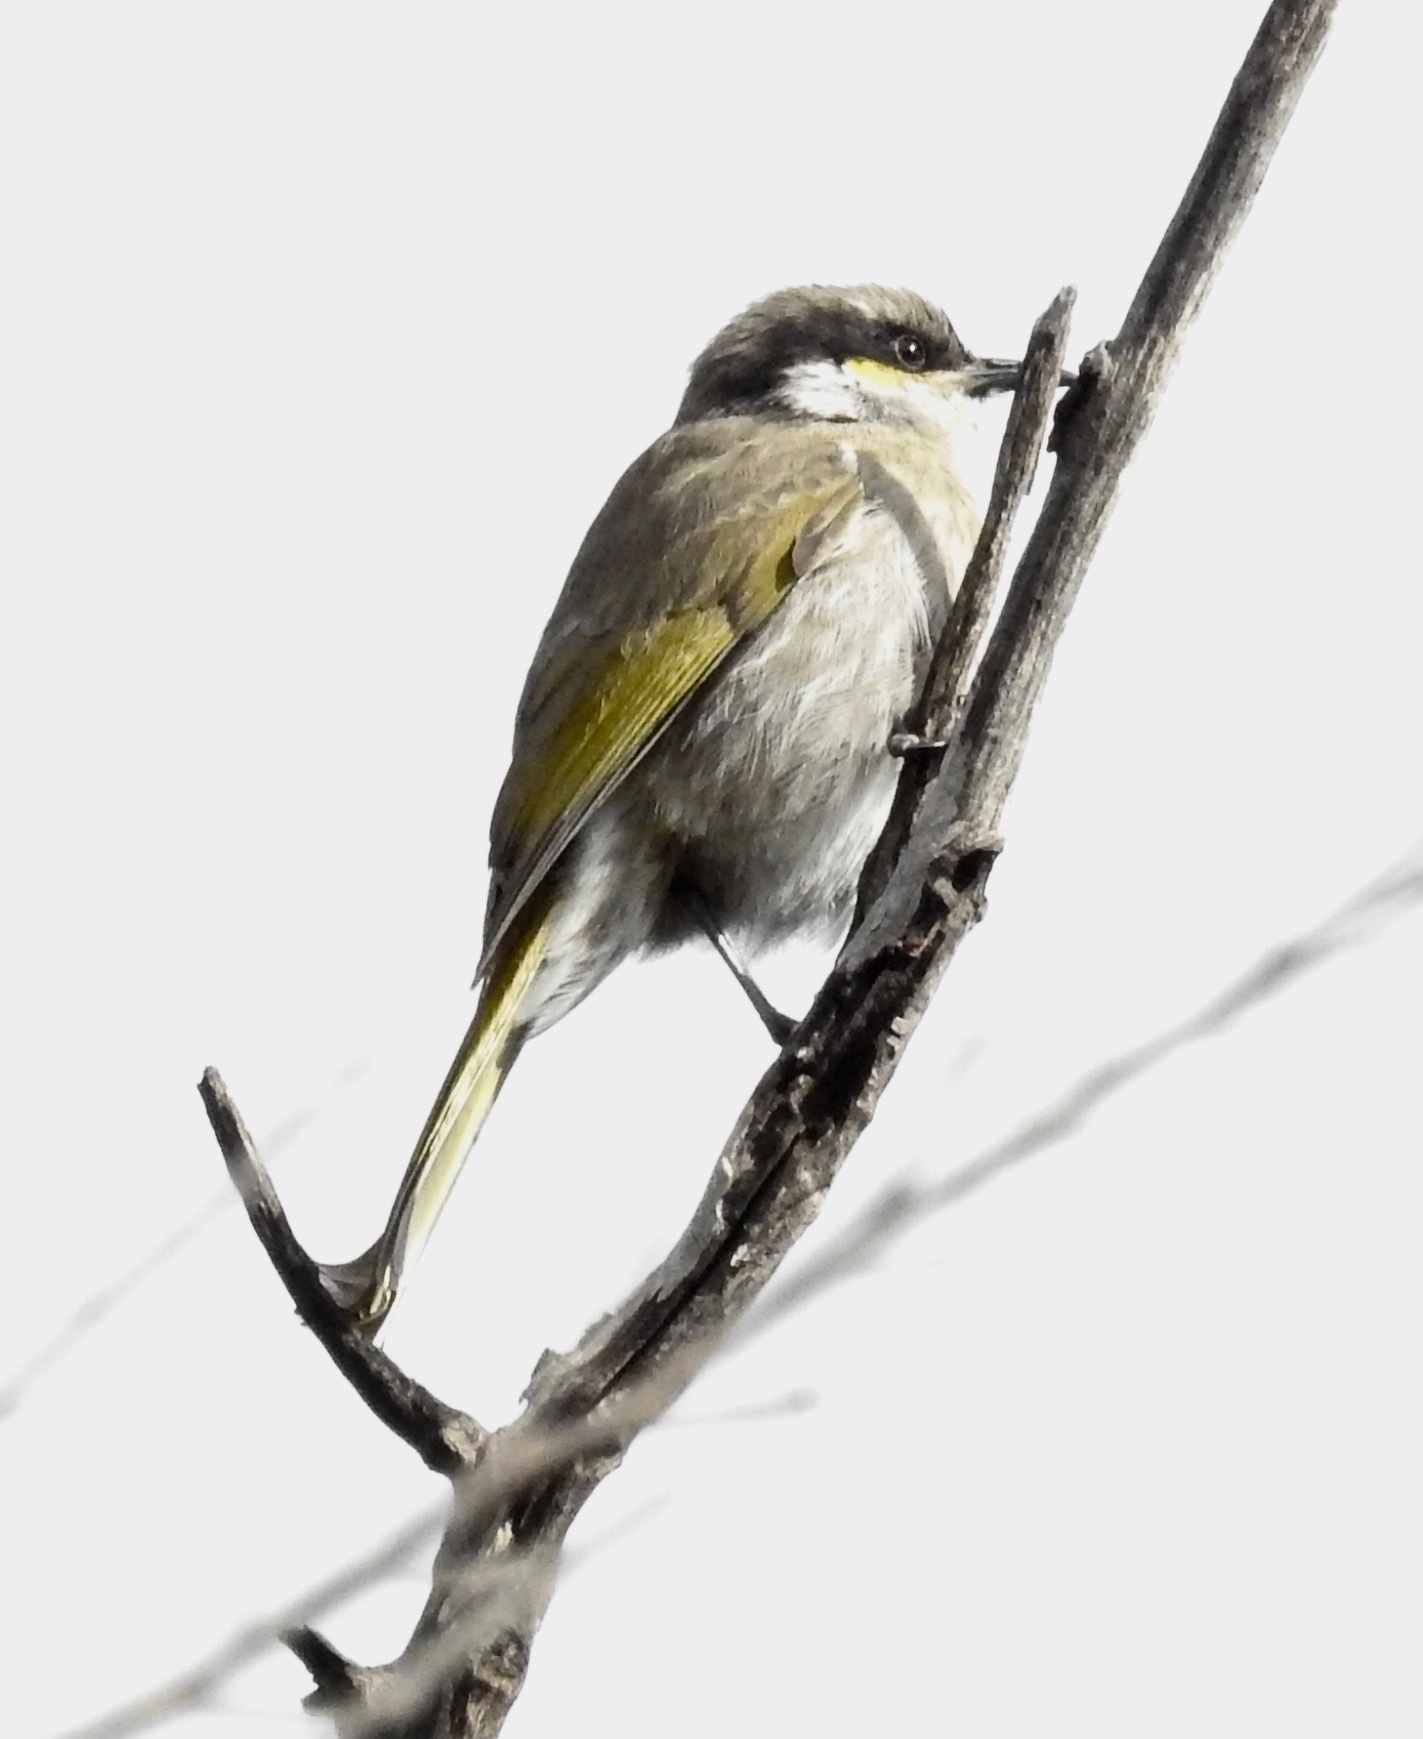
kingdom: Animalia
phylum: Chordata
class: Aves
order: Passeriformes
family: Meliphagidae
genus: Gavicalis
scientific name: Gavicalis virescens
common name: Singing honeyeater
